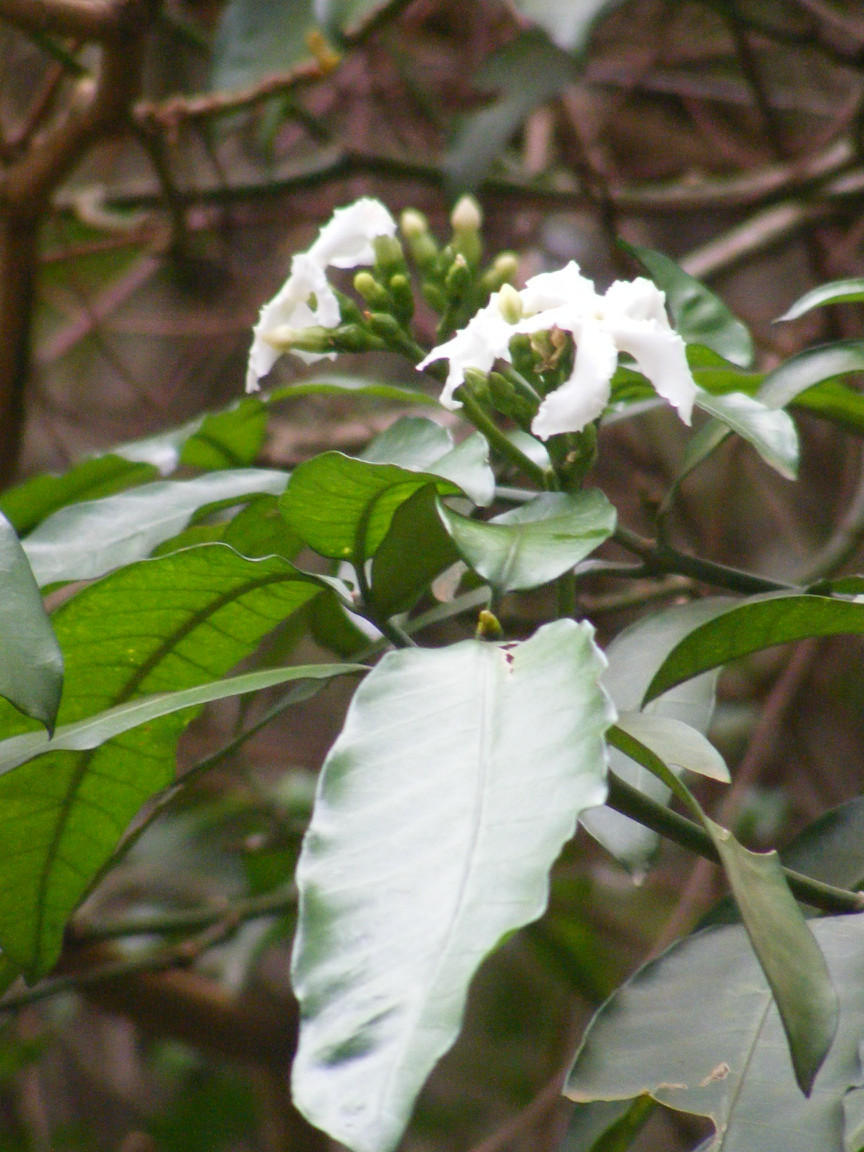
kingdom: Plantae
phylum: Tracheophyta
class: Magnoliopsida
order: Gentianales
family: Apocynaceae
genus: Tabernaemontana
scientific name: Tabernaemontana ventricosa
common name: Forest toad-tree
